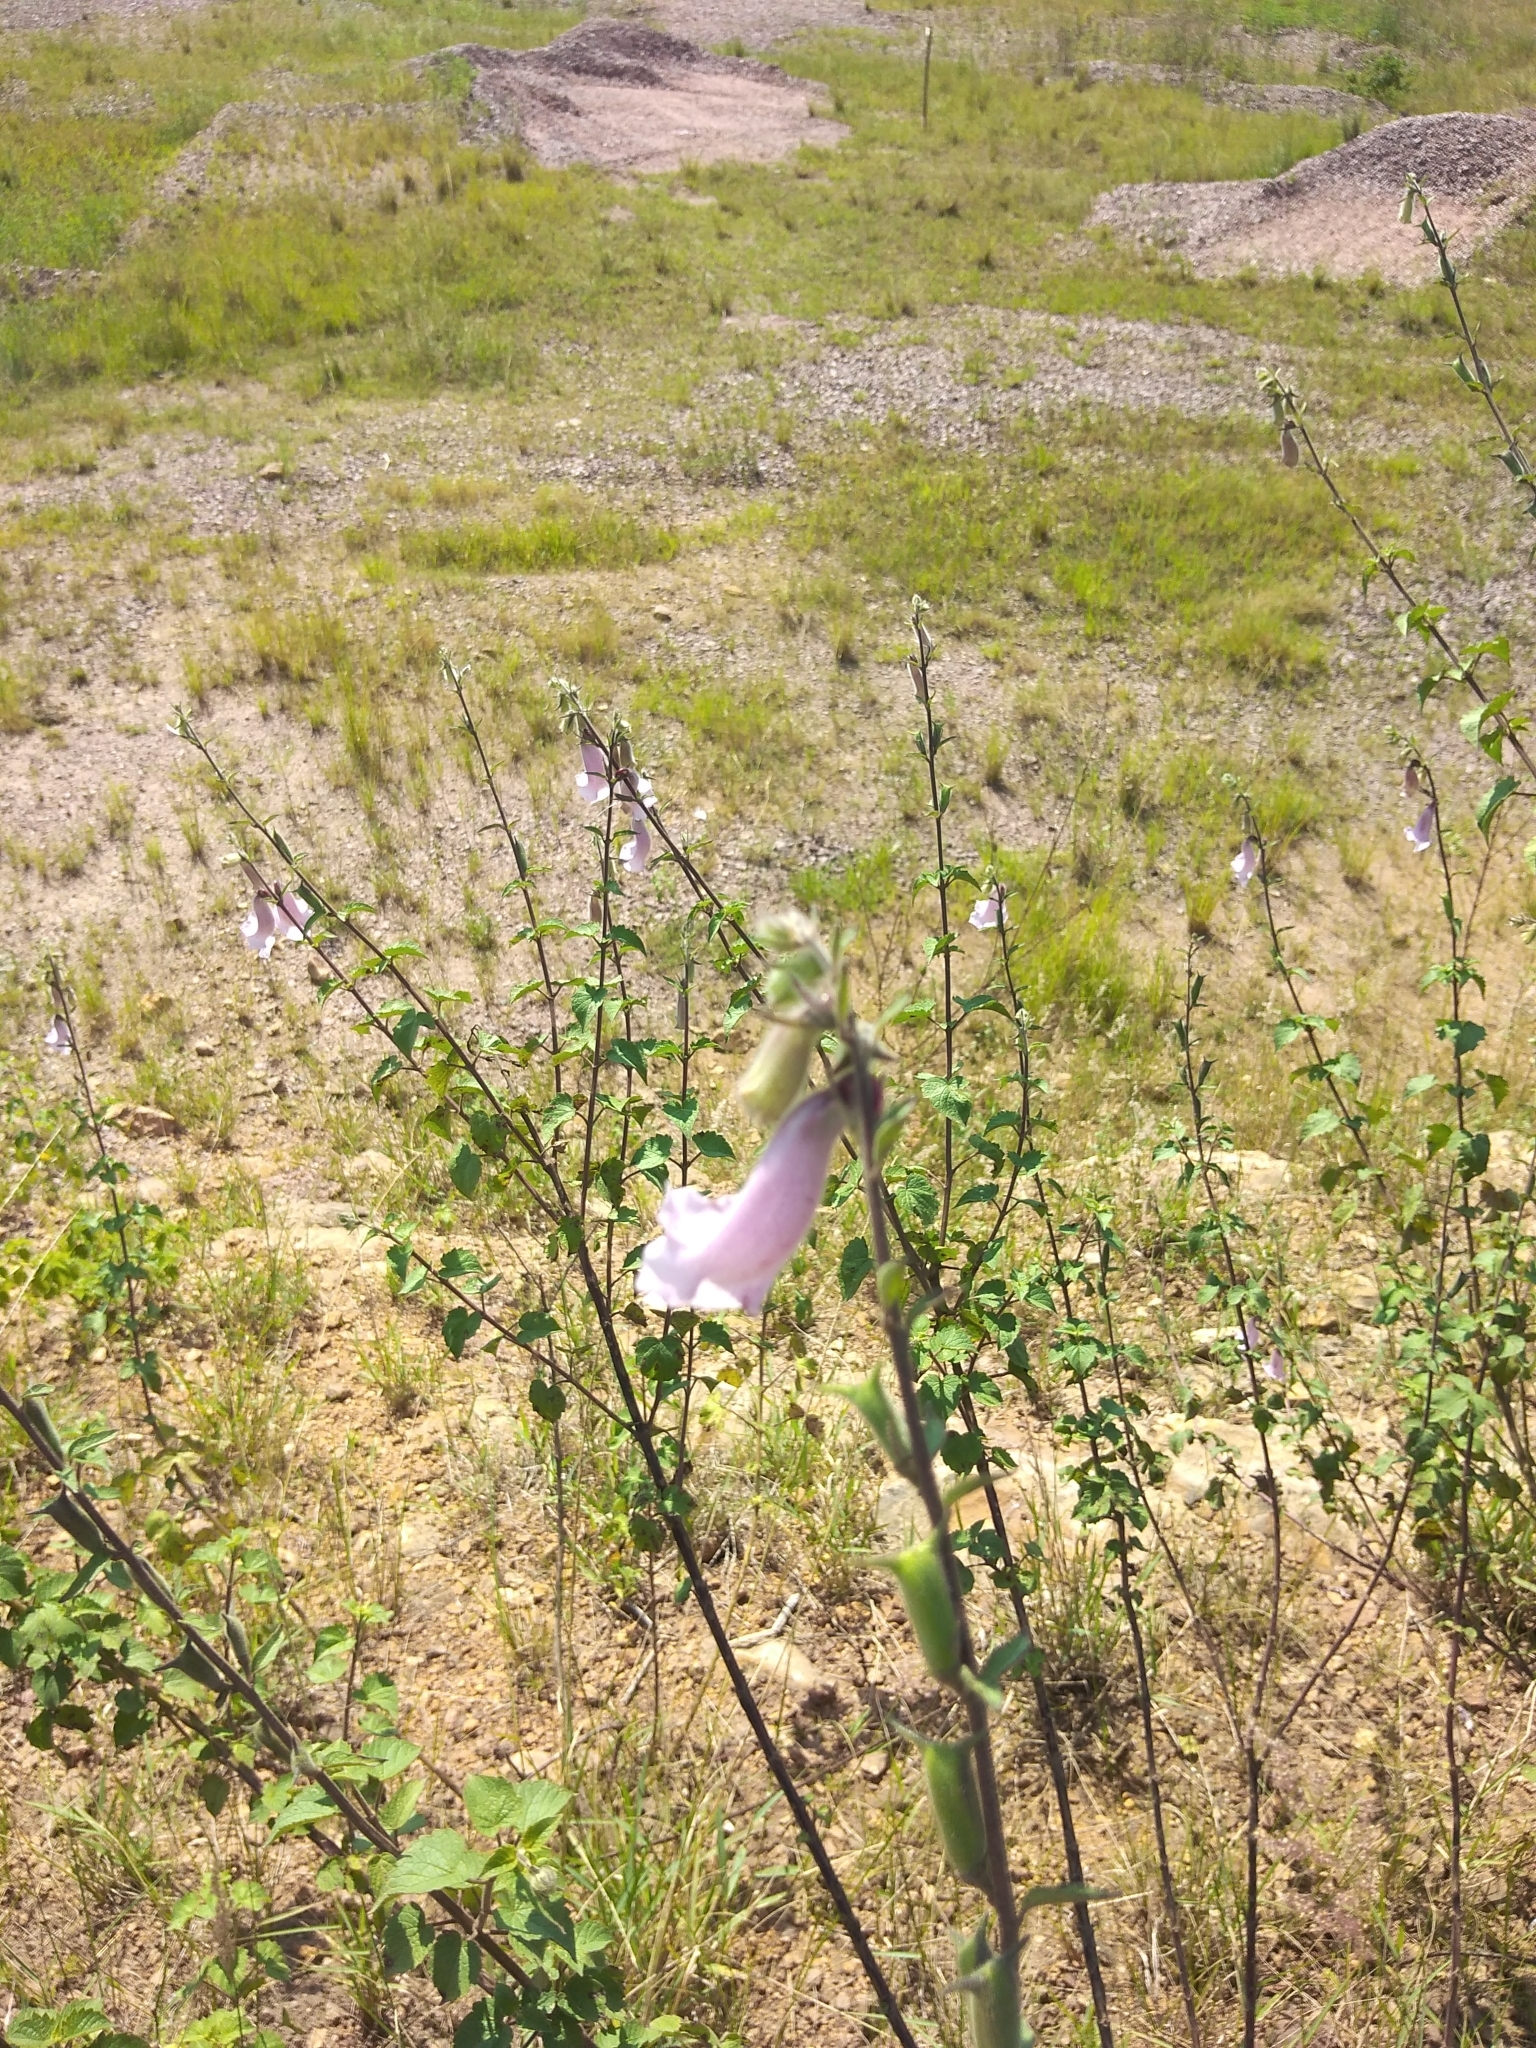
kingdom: Plantae
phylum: Tracheophyta
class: Magnoliopsida
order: Lamiales
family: Pedaliaceae
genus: Sesamum
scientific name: Sesamum trilobum
